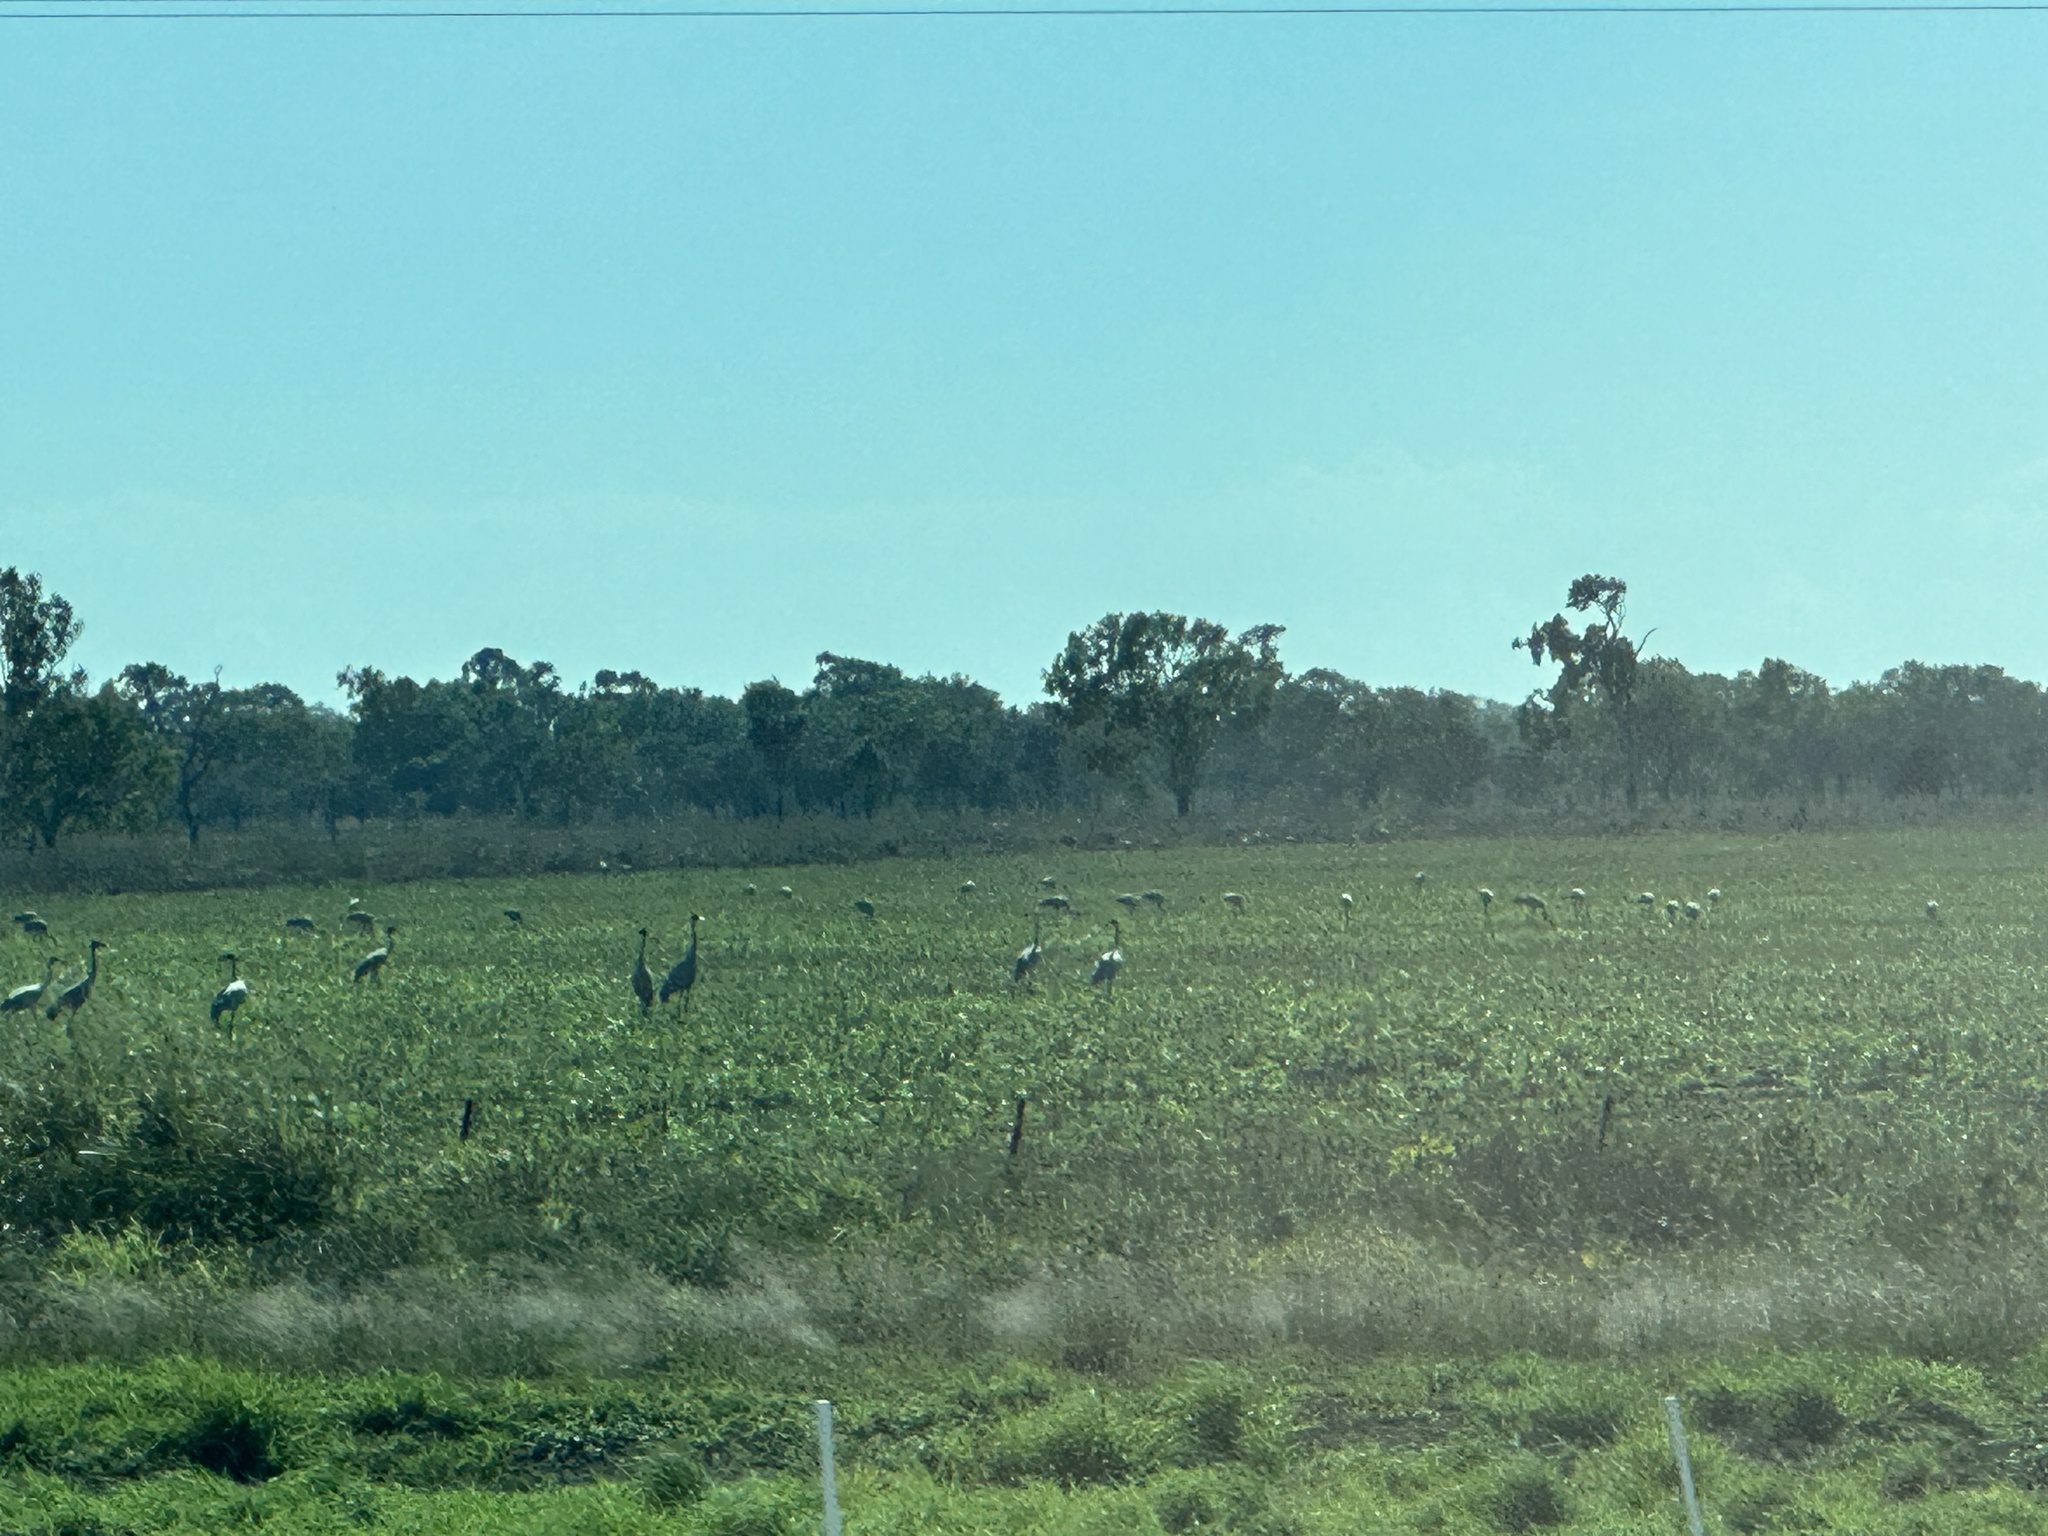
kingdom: Animalia
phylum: Chordata
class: Aves
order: Gruiformes
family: Gruidae
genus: Grus
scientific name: Grus rubicunda
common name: Brolga
